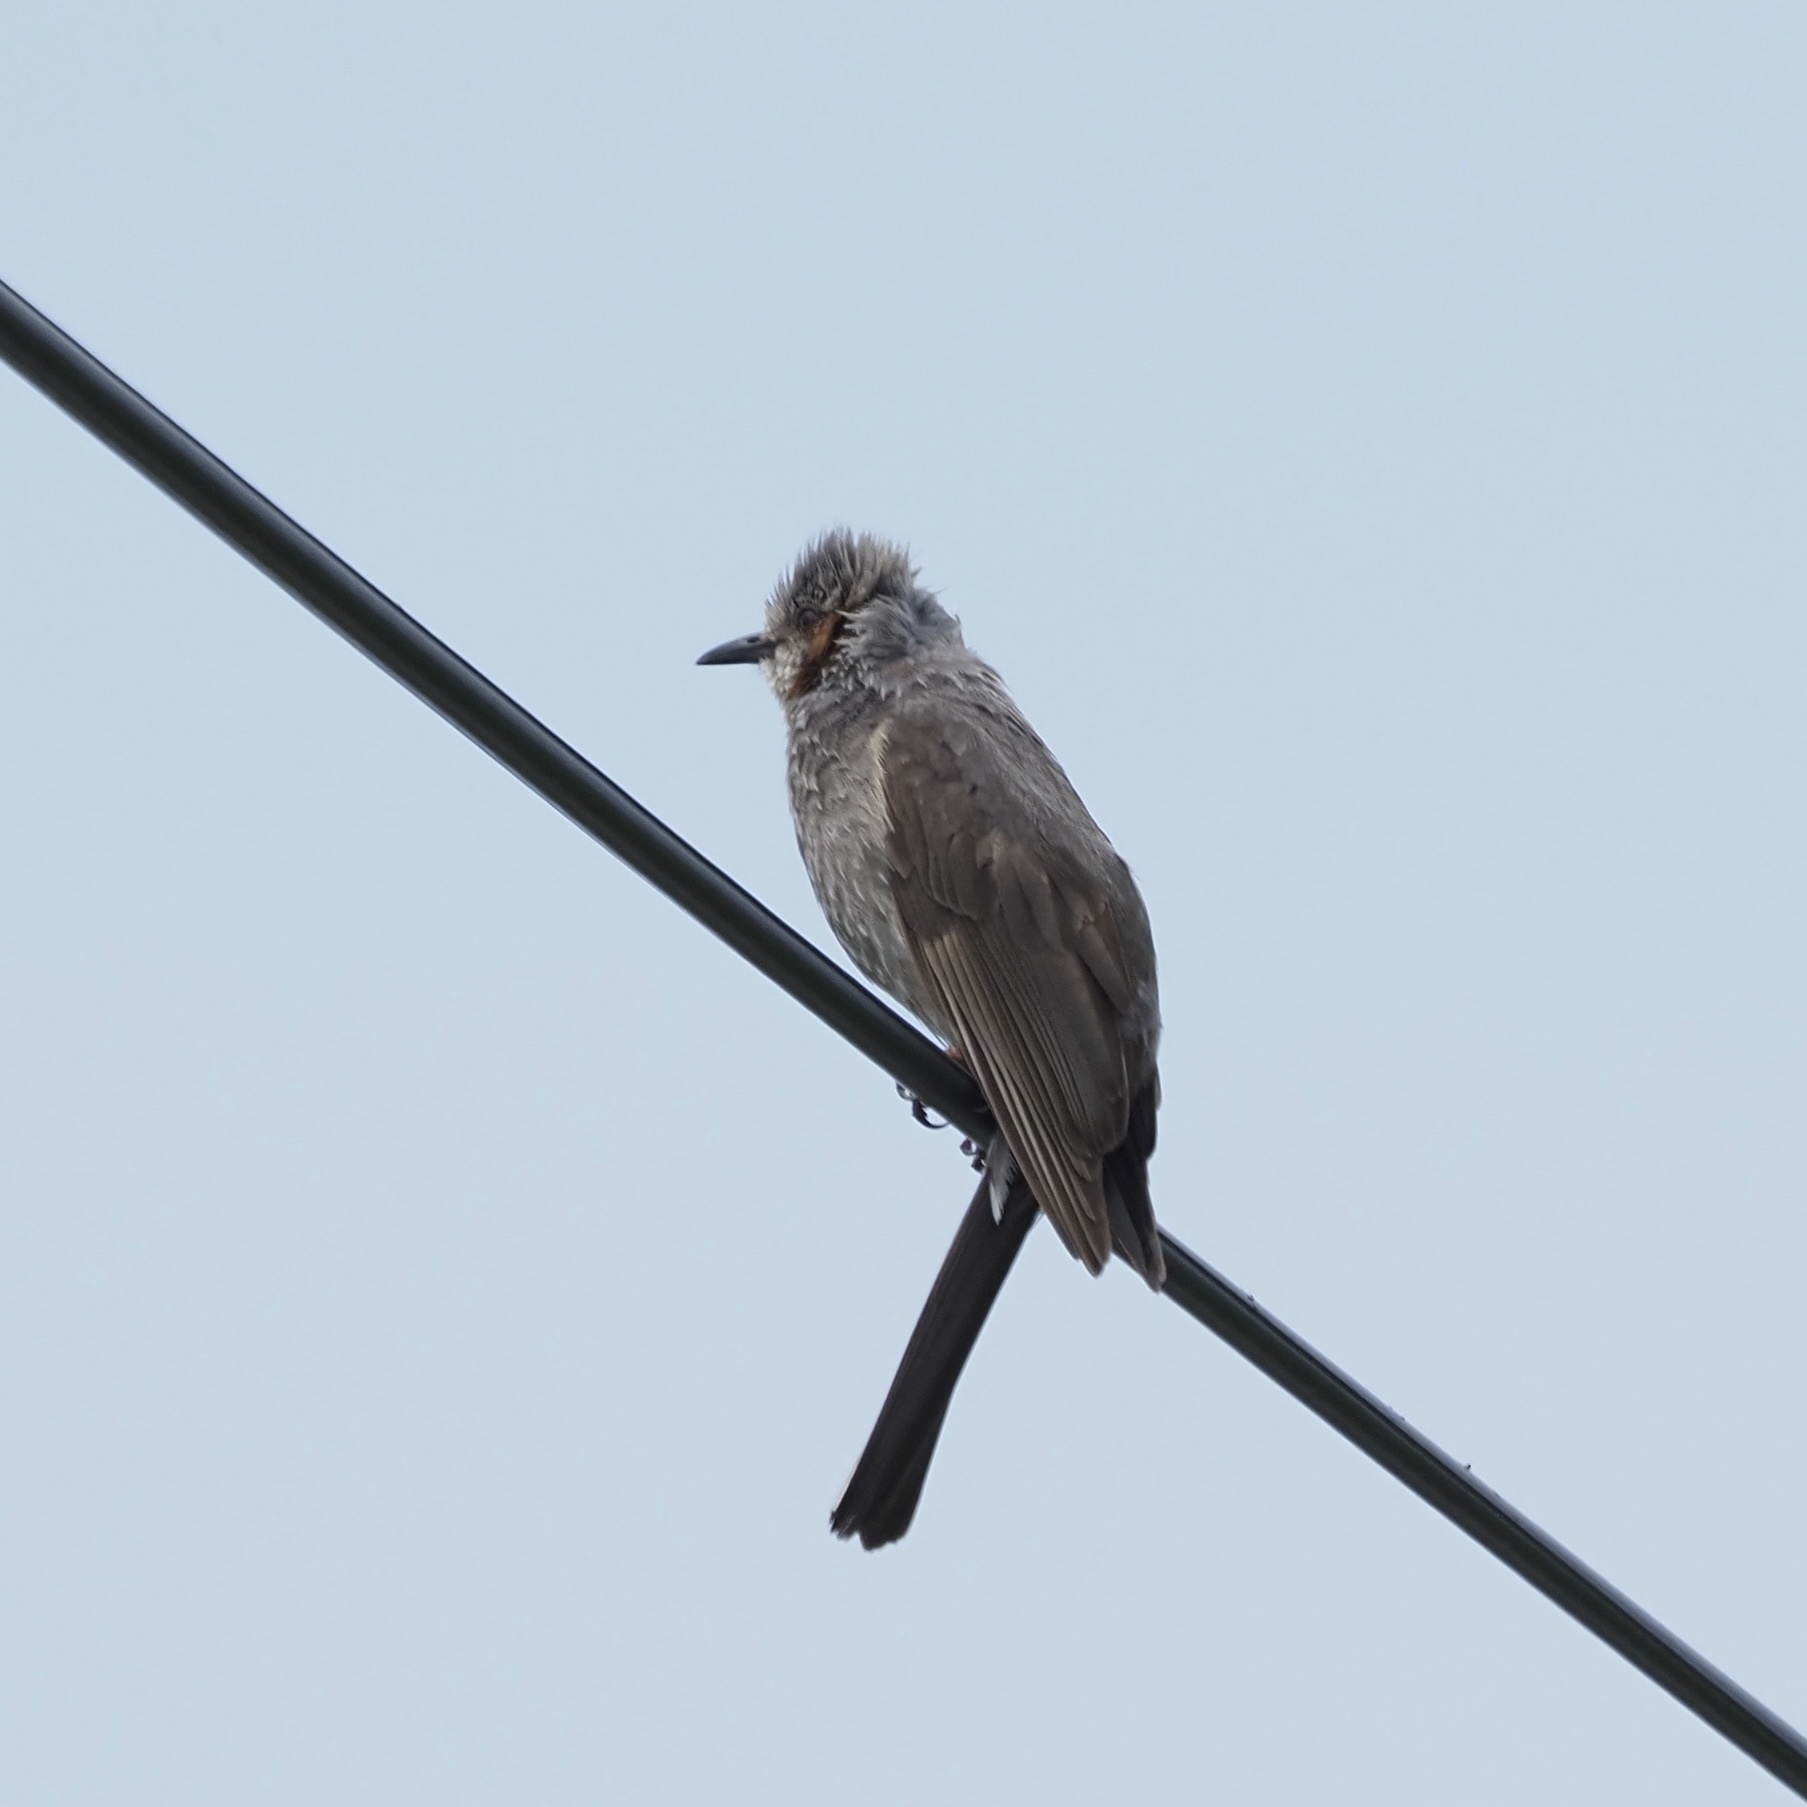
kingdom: Animalia
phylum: Chordata
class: Aves
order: Passeriformes
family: Pycnonotidae
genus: Hypsipetes
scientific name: Hypsipetes amaurotis
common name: Brown-eared bulbul
